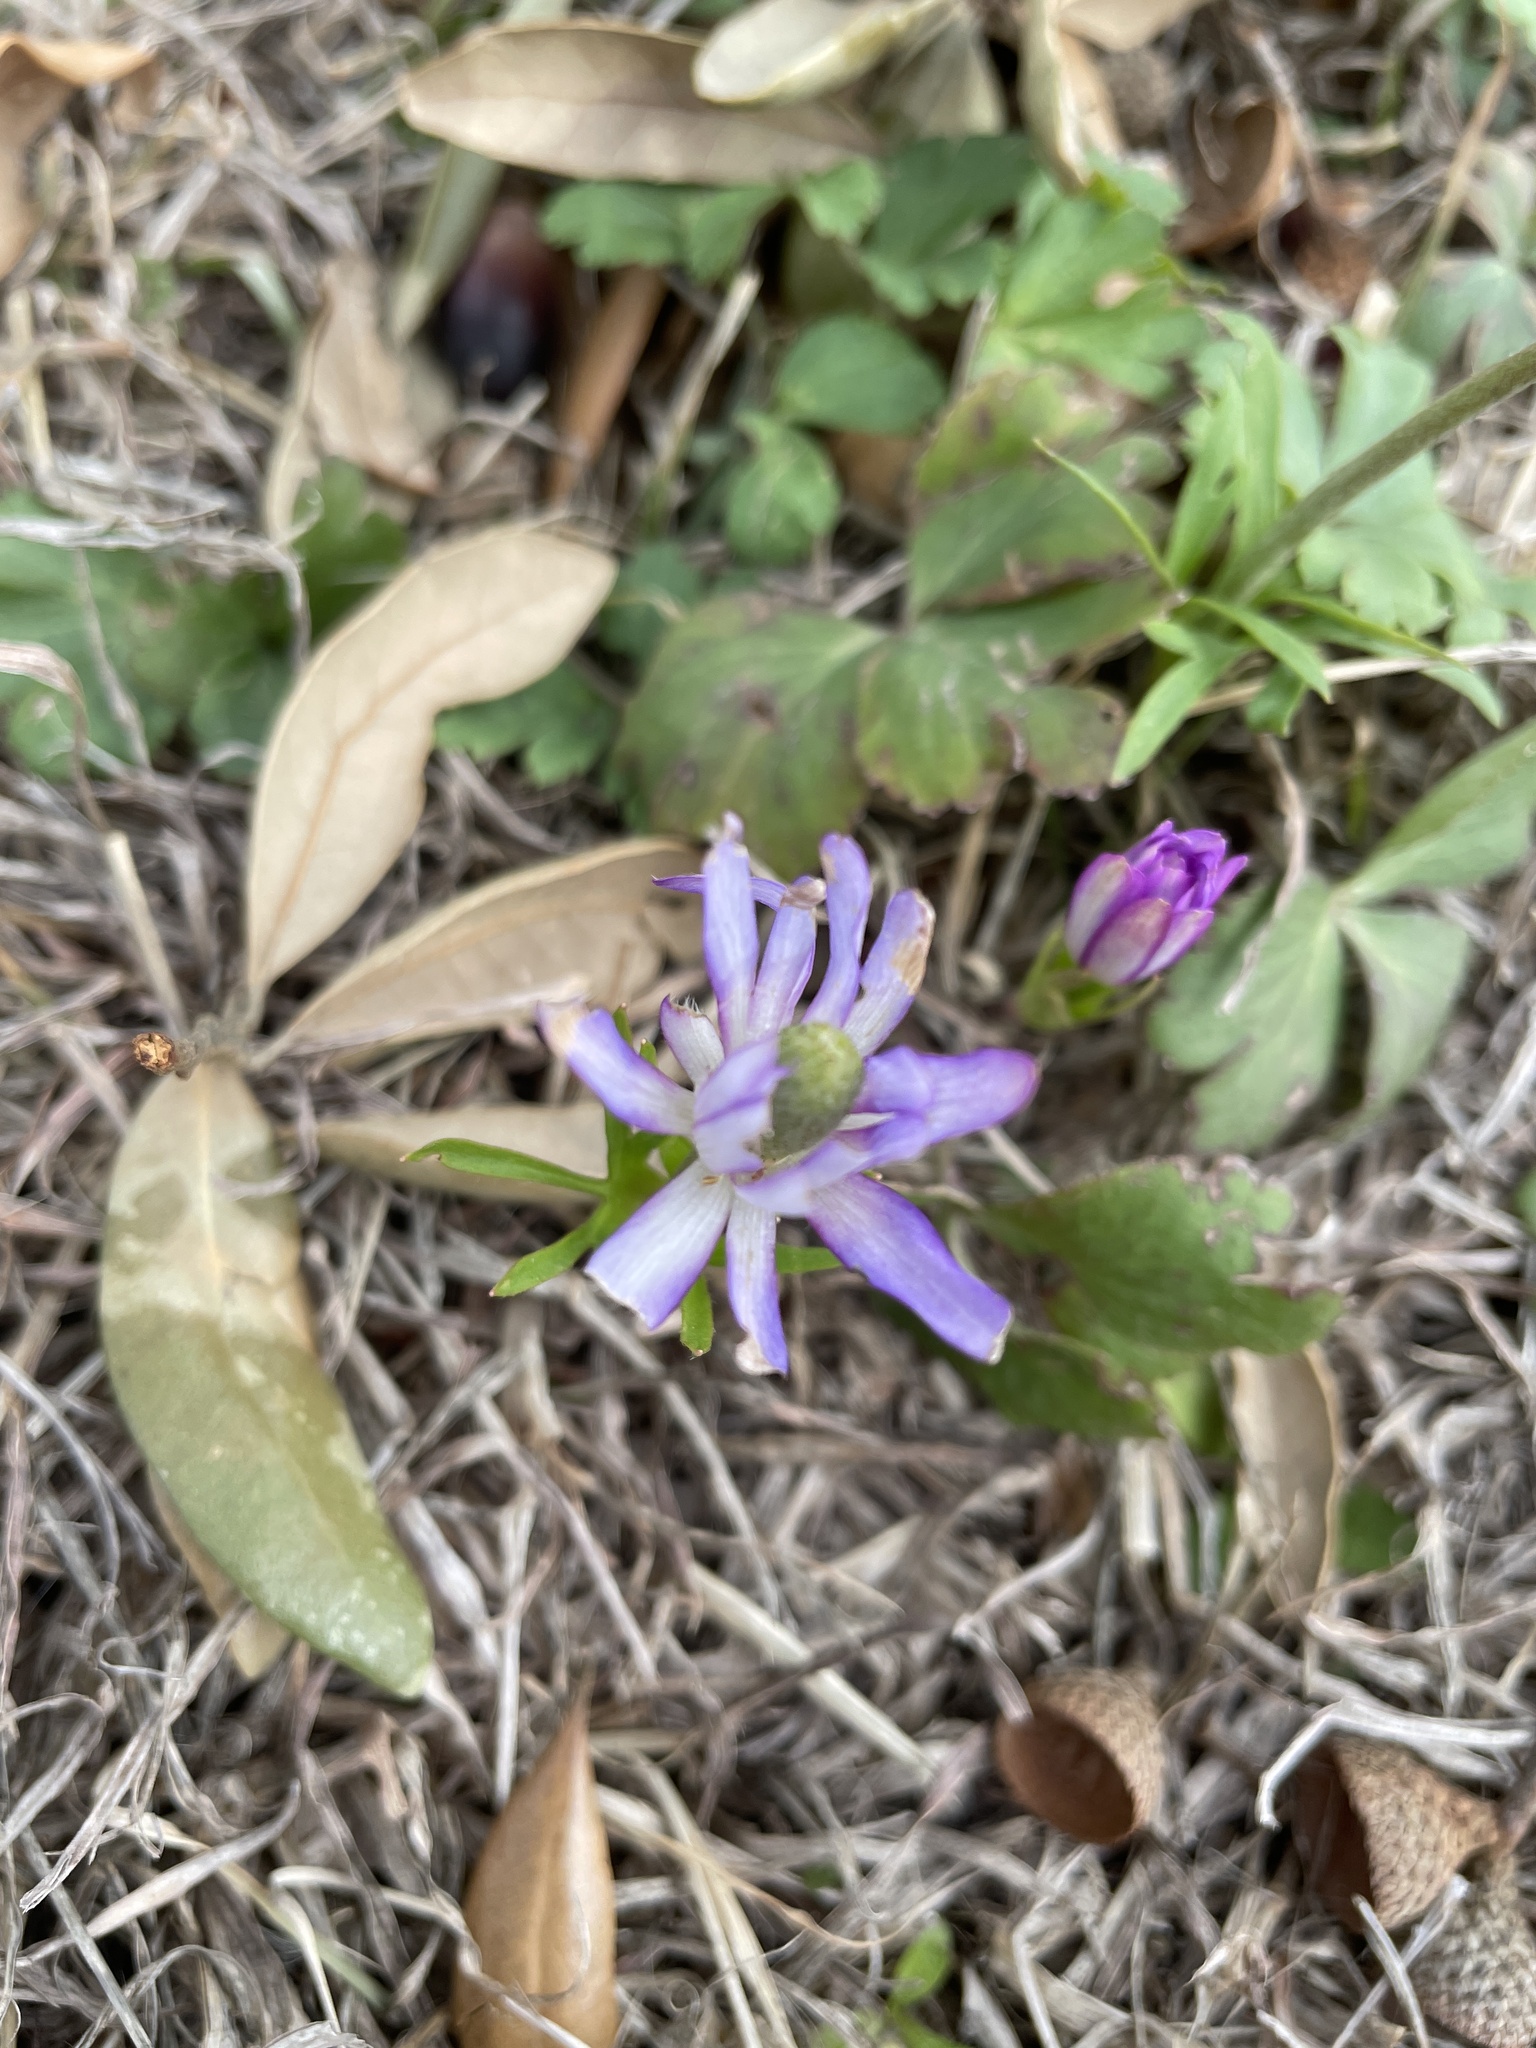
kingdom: Plantae
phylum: Tracheophyta
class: Magnoliopsida
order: Ranunculales
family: Ranunculaceae
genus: Anemone
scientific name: Anemone berlandieri
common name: Ten-petal anemone
